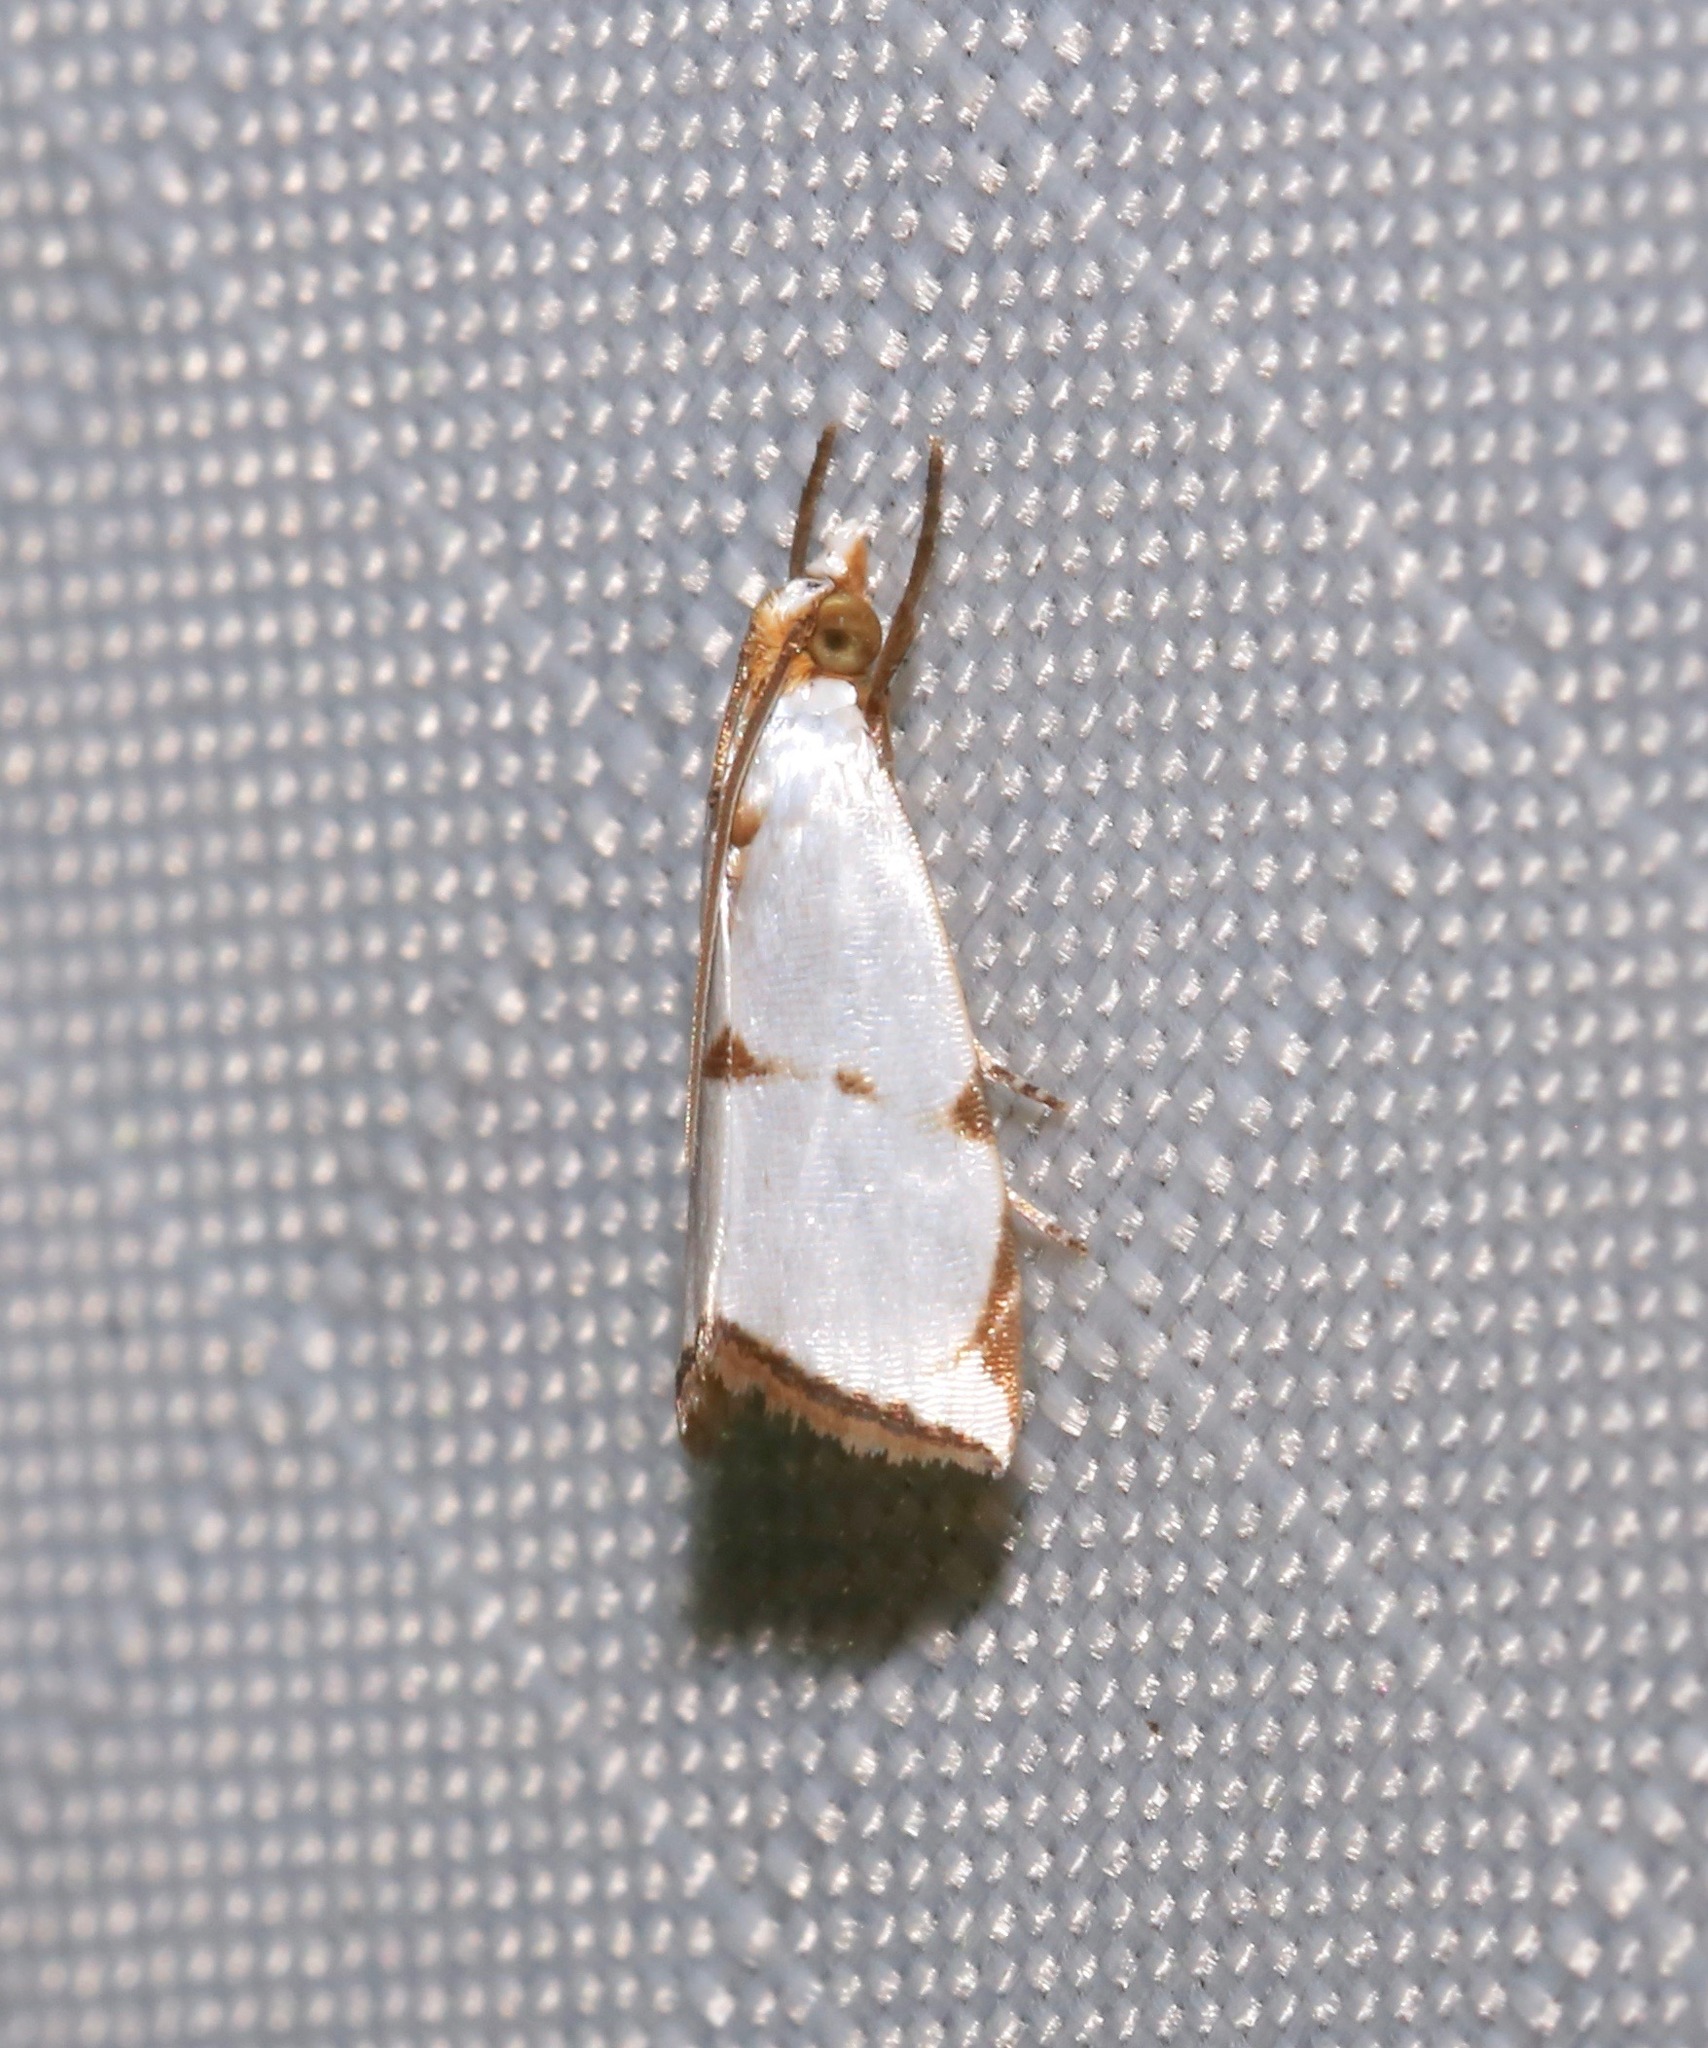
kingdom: Animalia
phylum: Arthropoda
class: Insecta
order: Lepidoptera
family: Crambidae
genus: Argyria
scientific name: Argyria lacteella
